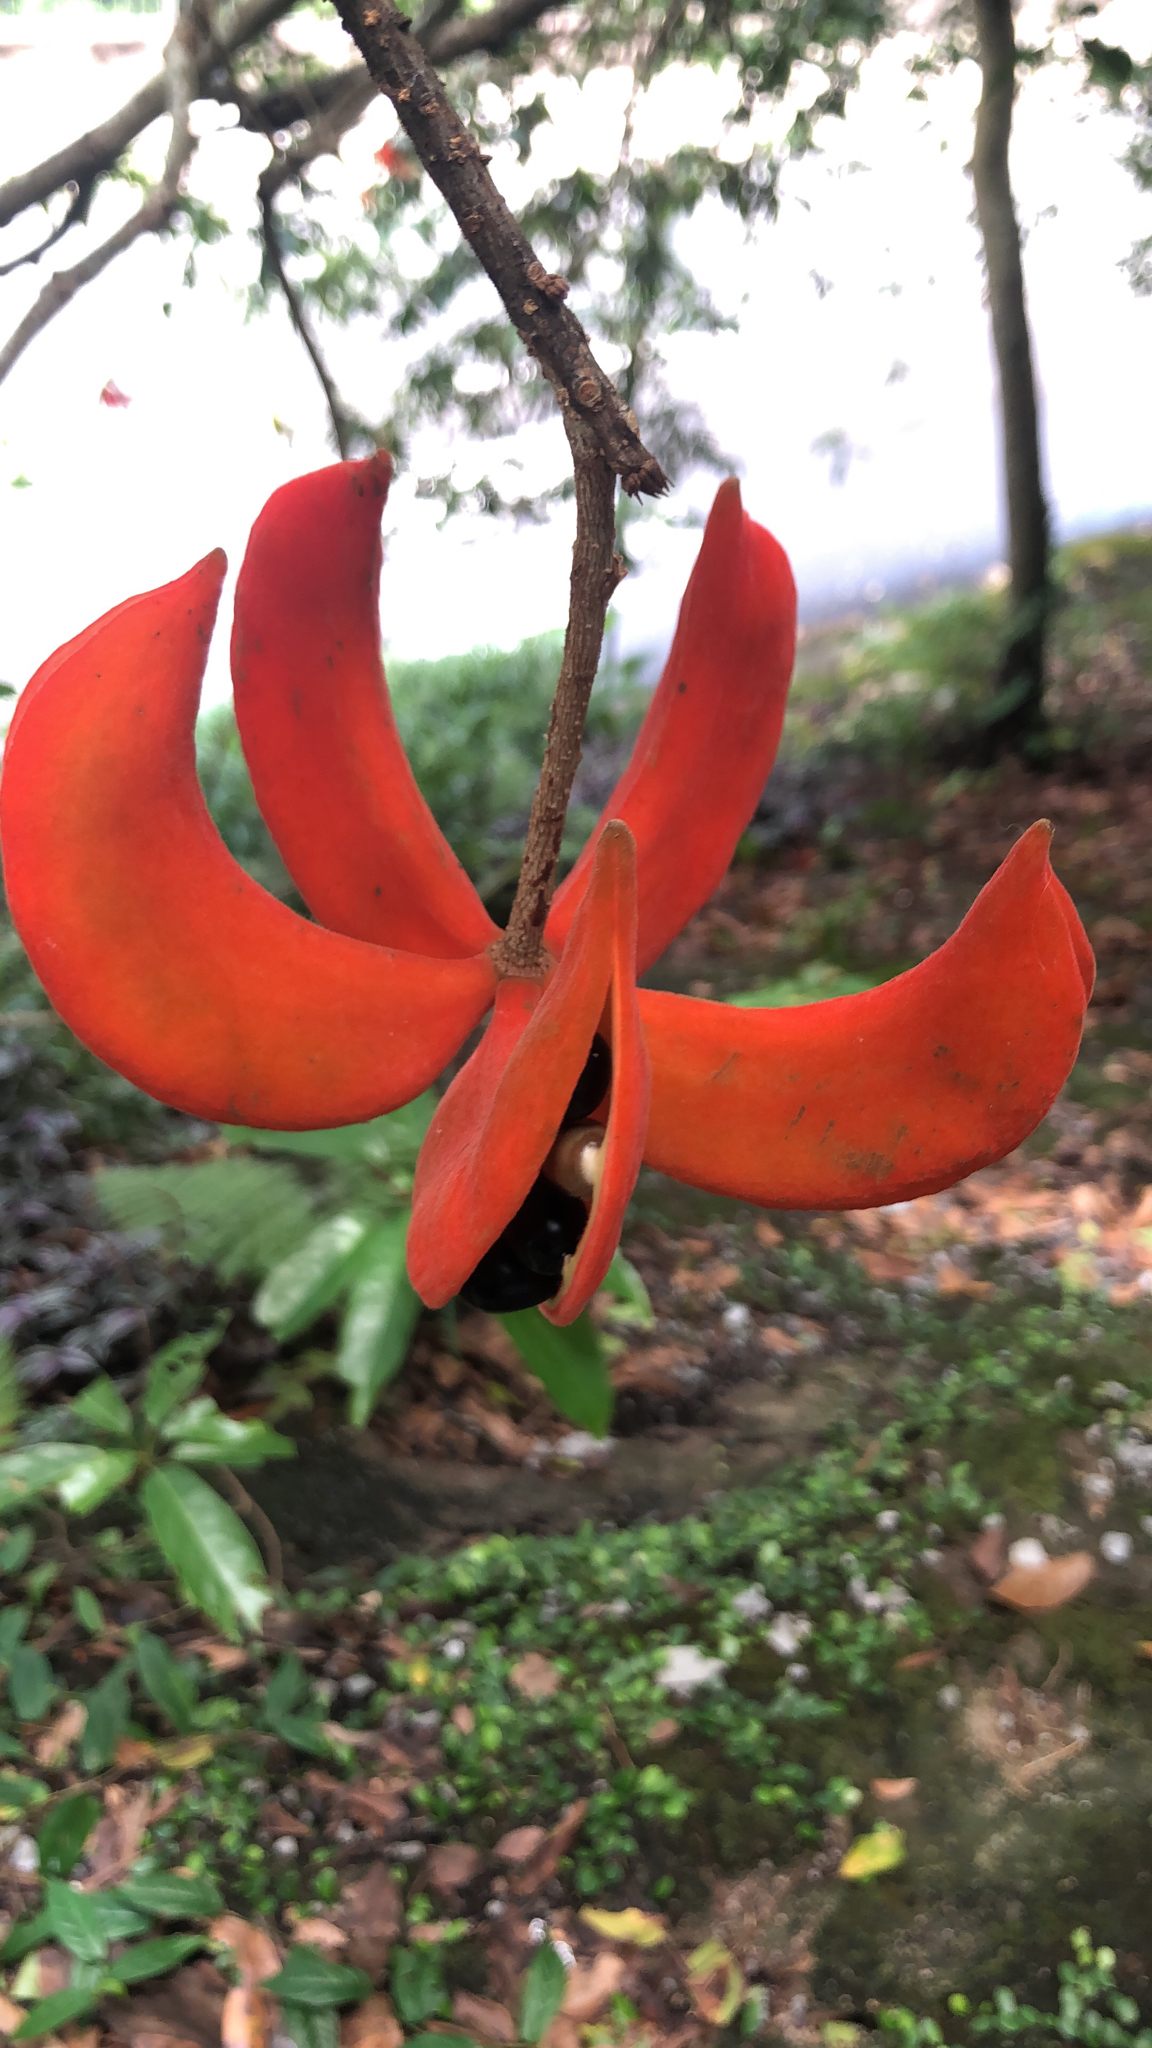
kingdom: Plantae
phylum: Tracheophyta
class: Magnoliopsida
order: Malvales
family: Malvaceae
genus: Sterculia
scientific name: Sterculia lanceolata
